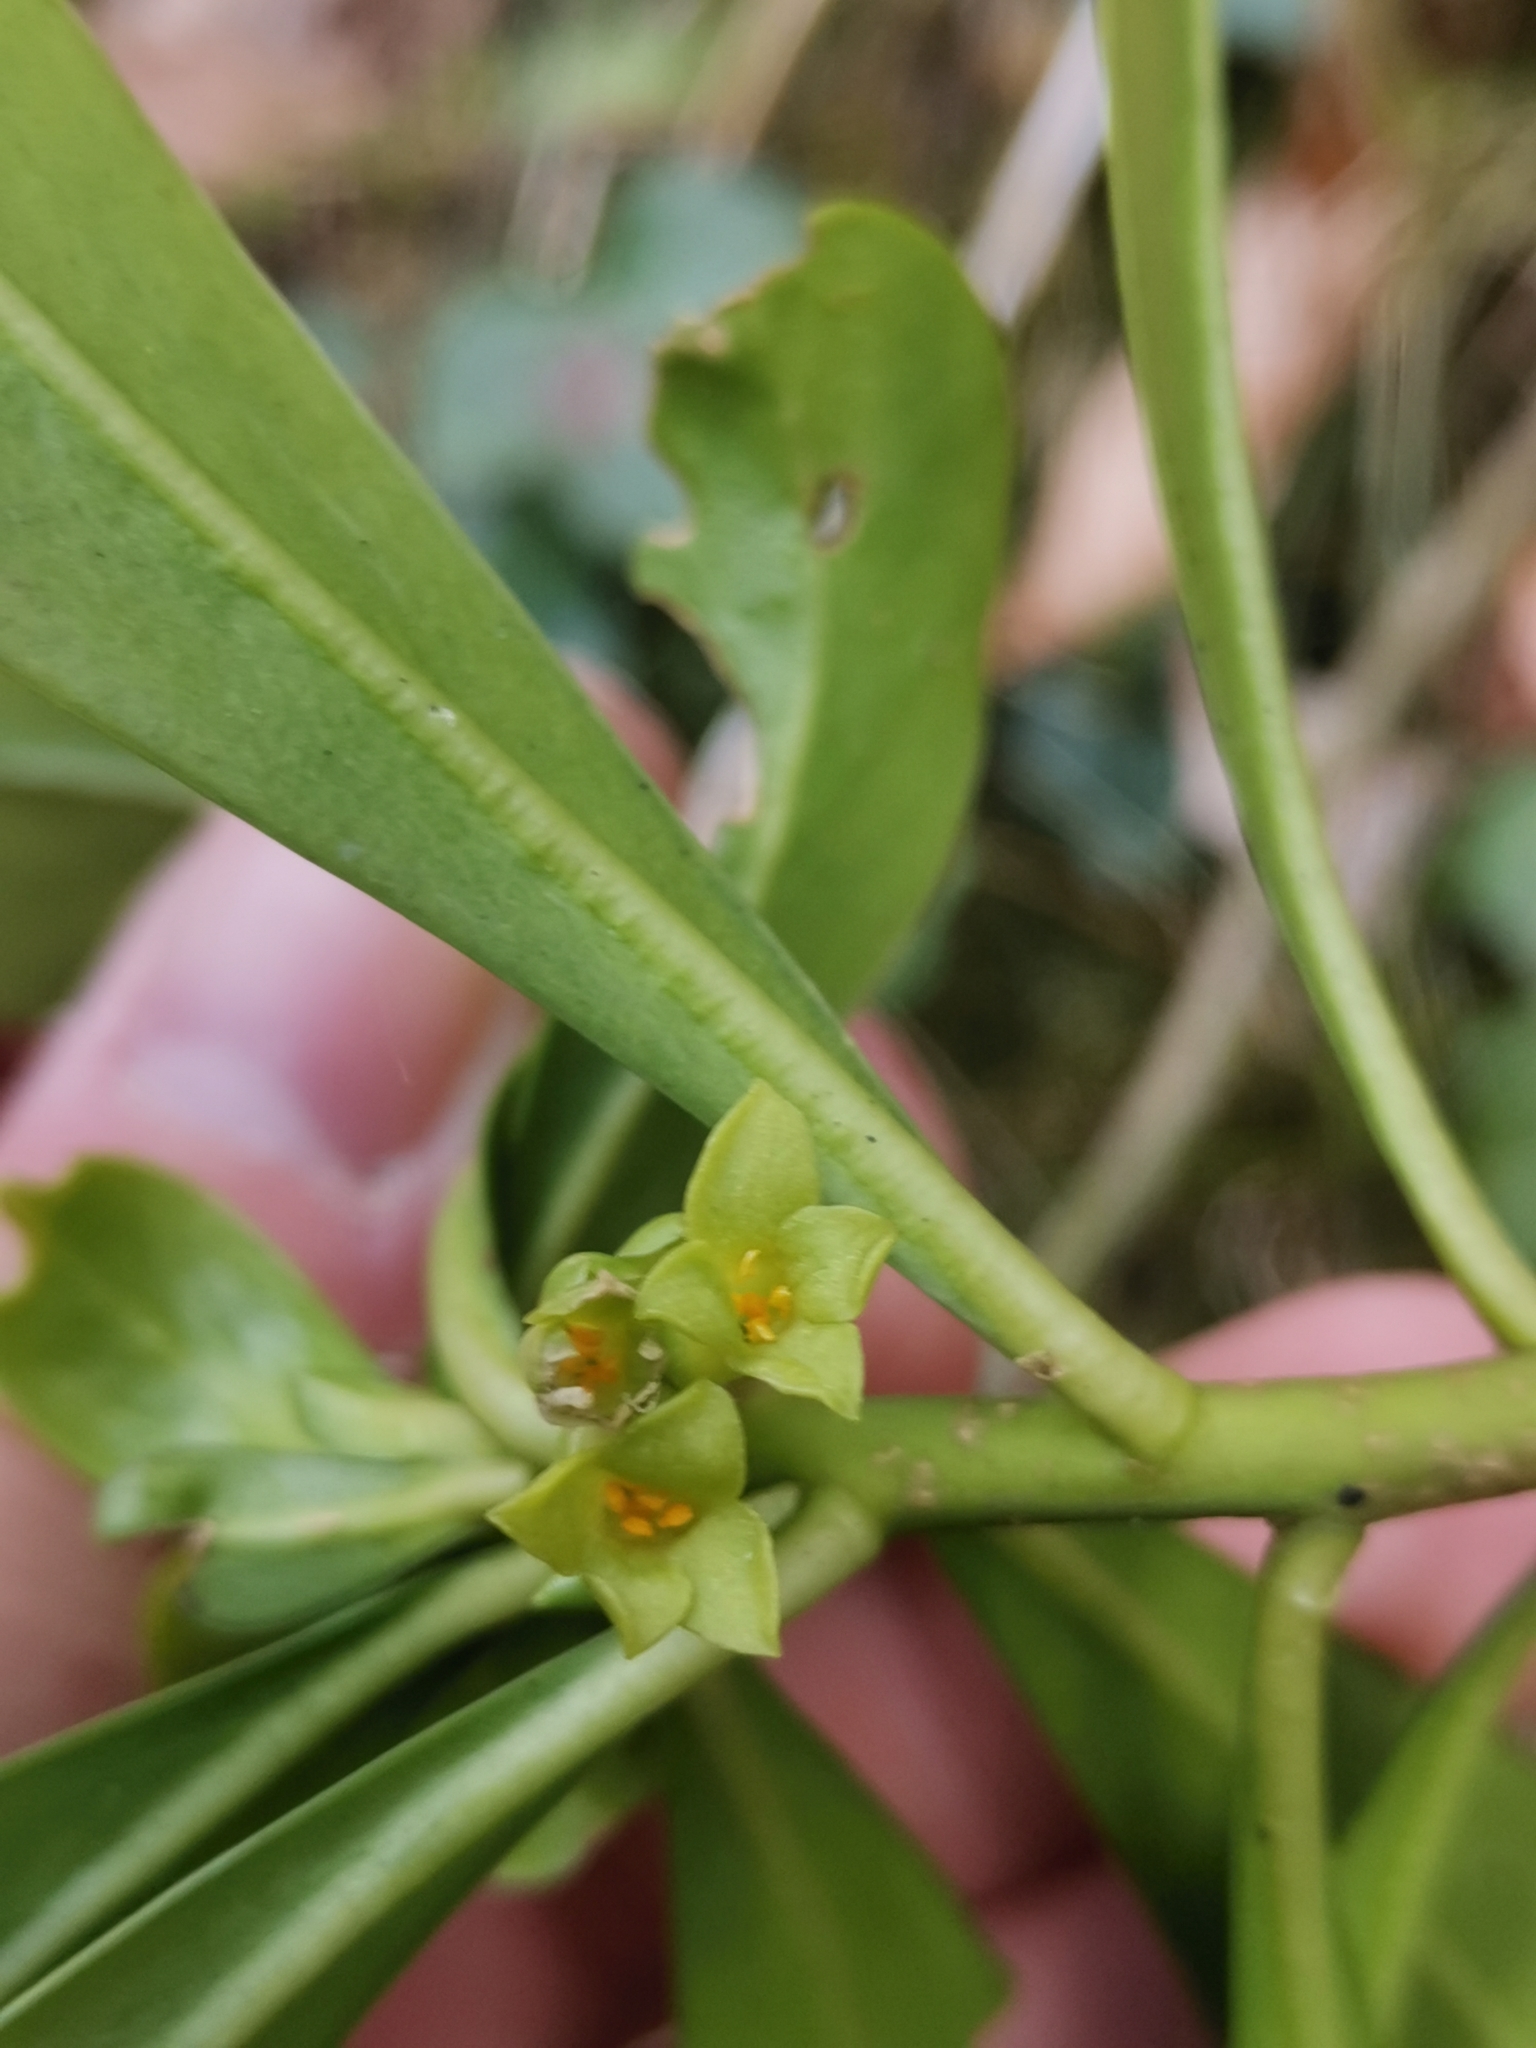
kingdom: Plantae
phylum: Tracheophyta
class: Magnoliopsida
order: Malvales
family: Thymelaeaceae
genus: Daphne
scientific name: Daphne laureola
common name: Spurge-laurel
